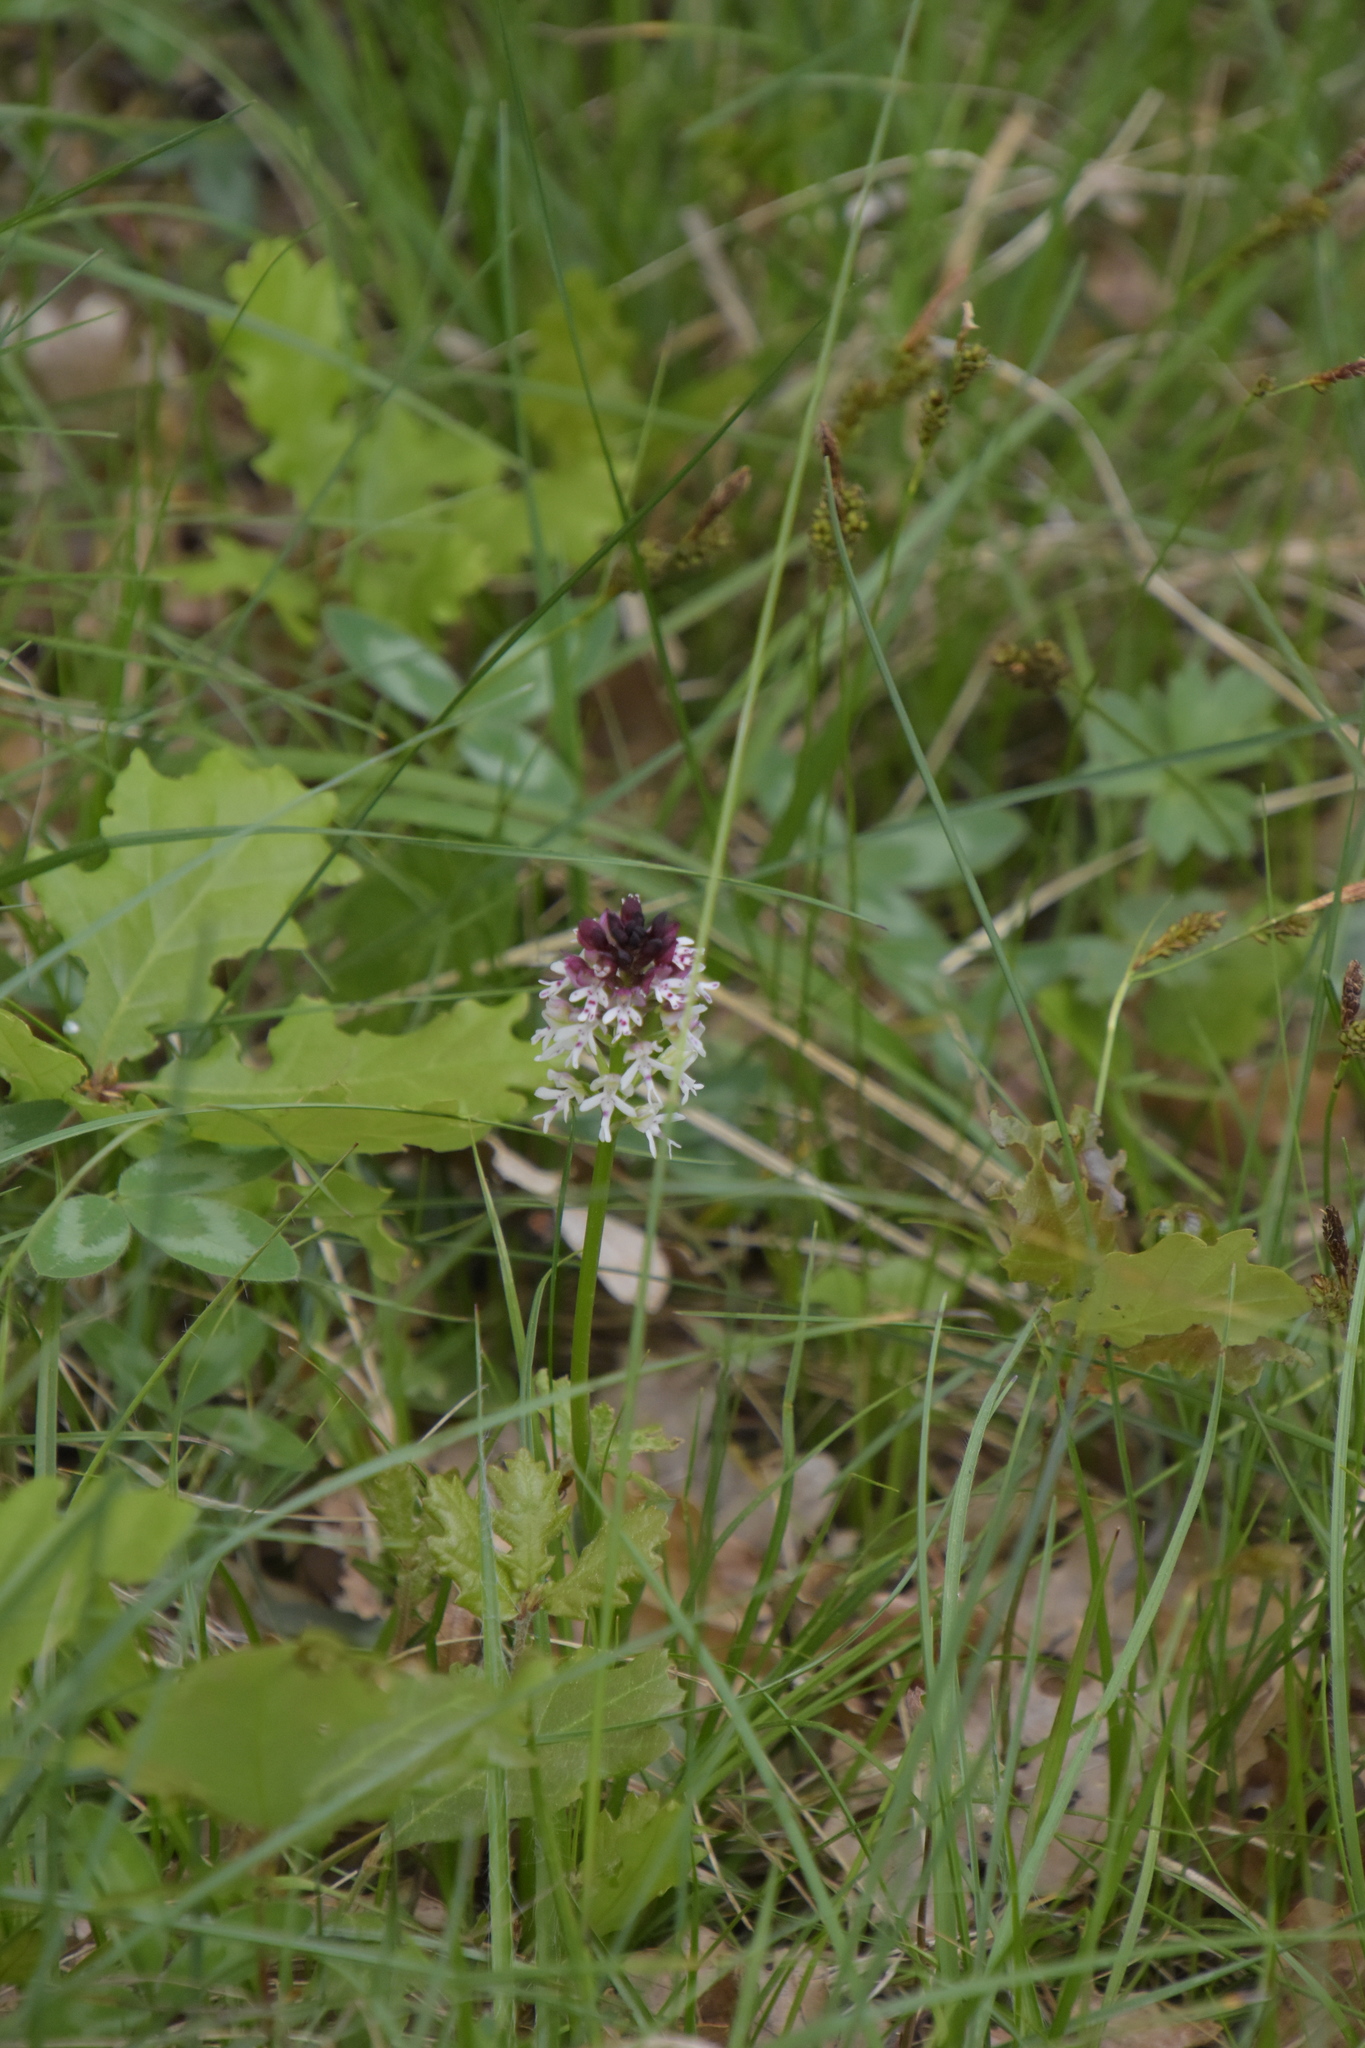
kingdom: Plantae
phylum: Tracheophyta
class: Liliopsida
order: Asparagales
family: Orchidaceae
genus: Neotinea
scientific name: Neotinea ustulata
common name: Burnt orchid
